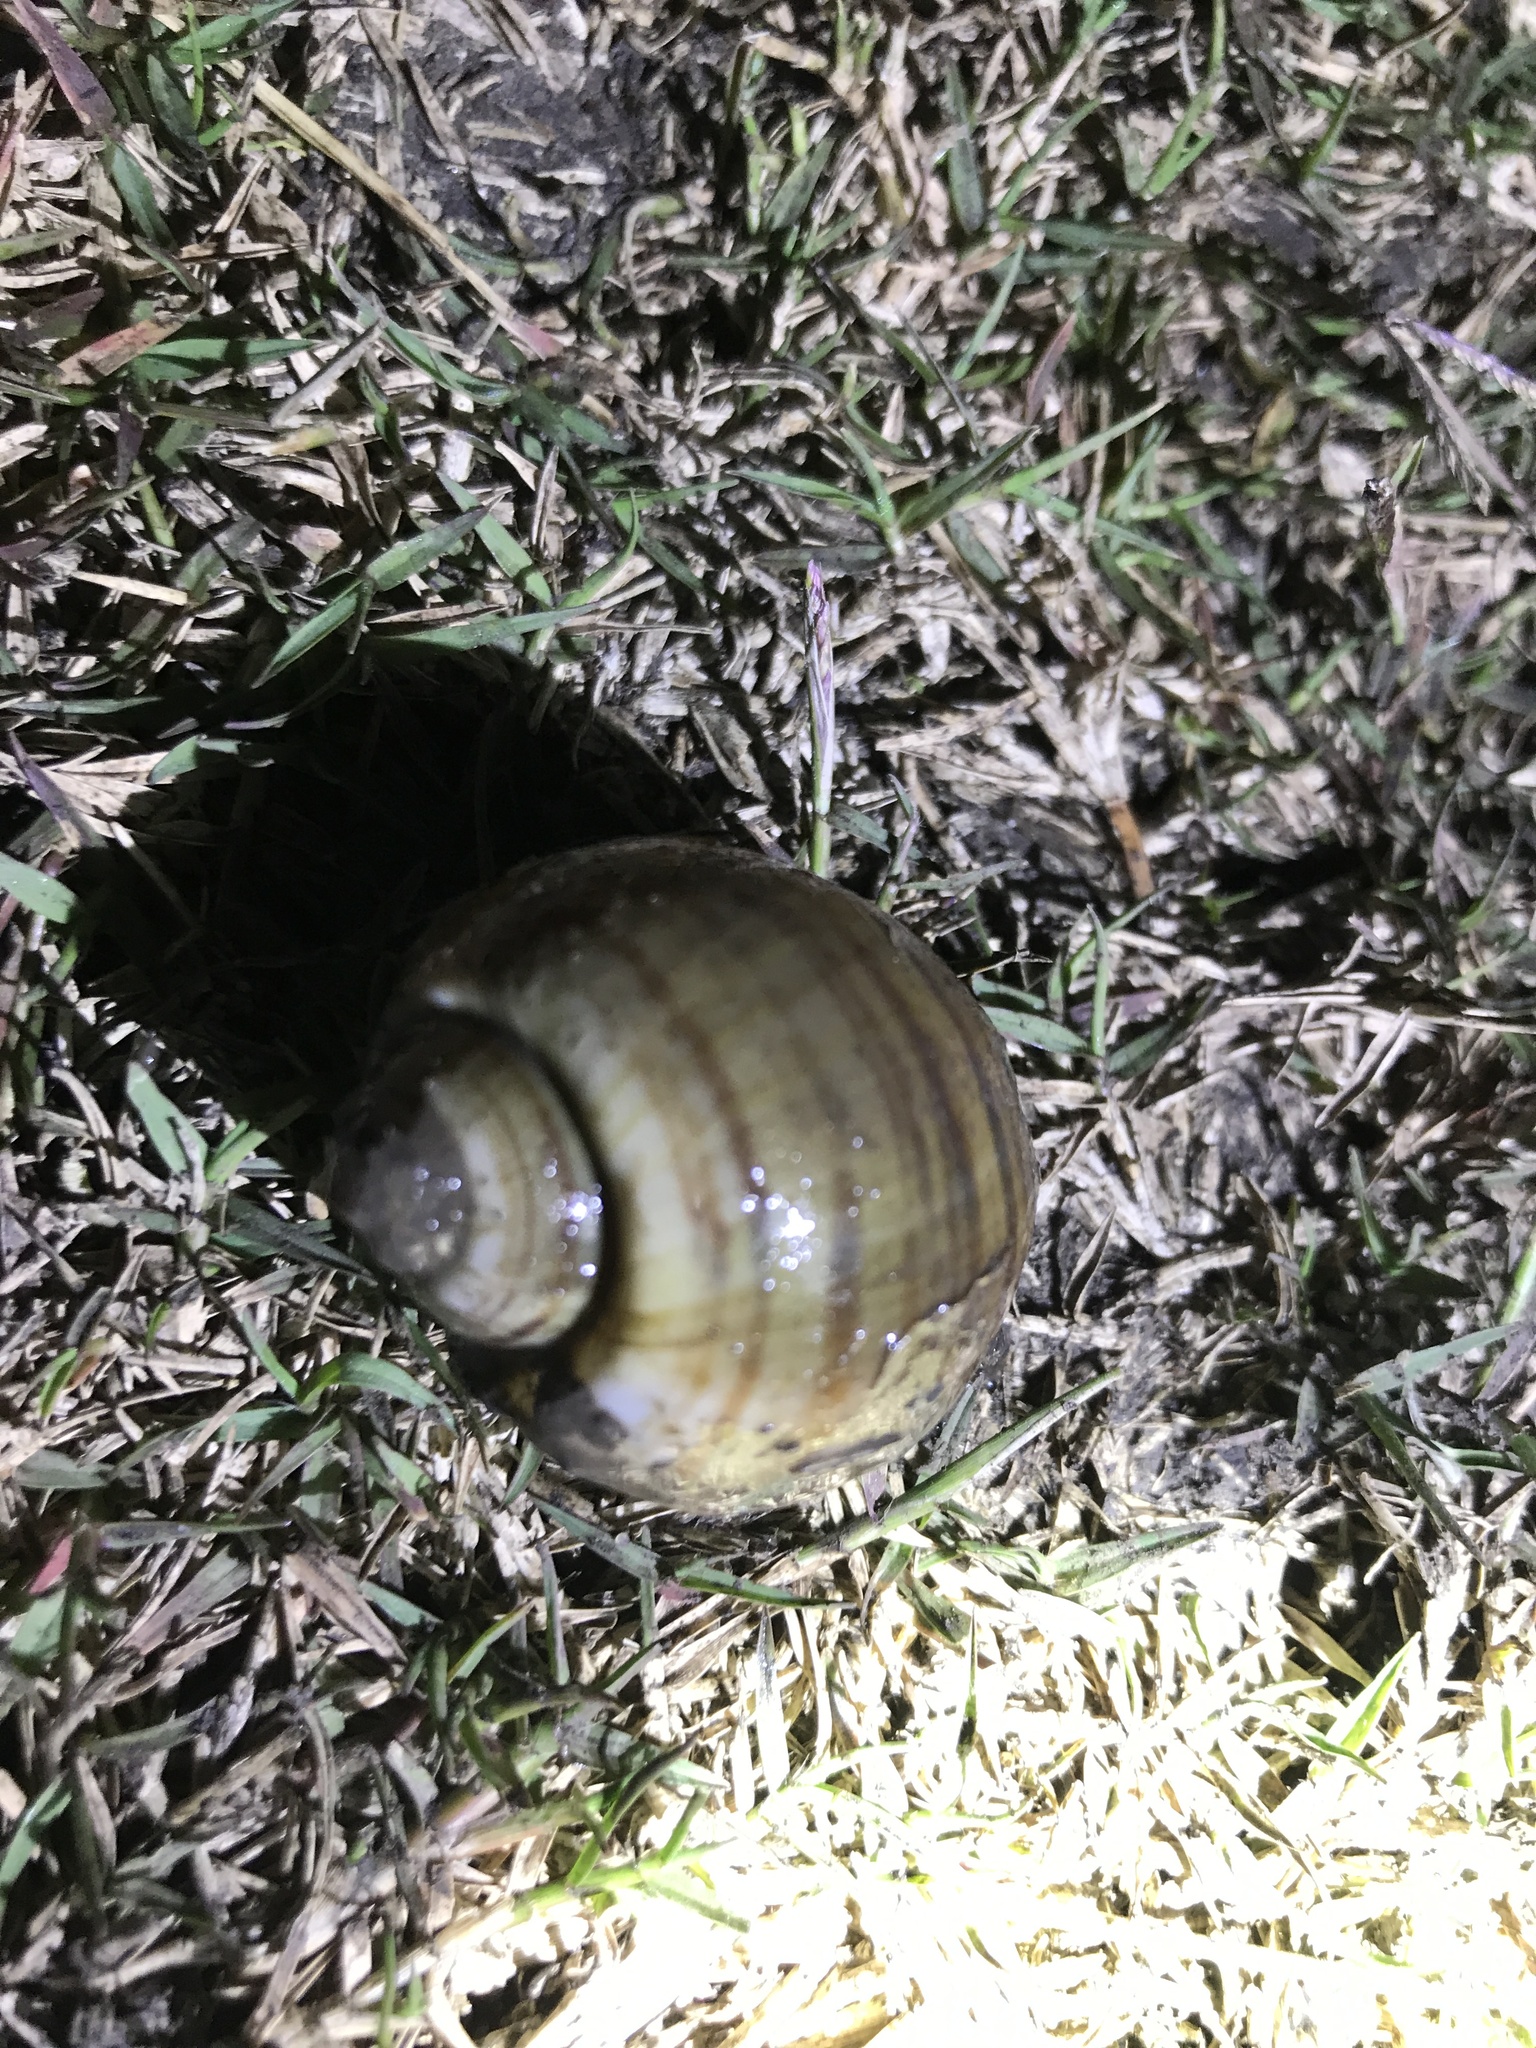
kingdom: Animalia
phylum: Mollusca
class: Gastropoda
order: Architaenioglossa
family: Ampullariidae
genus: Pomacea
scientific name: Pomacea canaliculata
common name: Channeled applesnail
